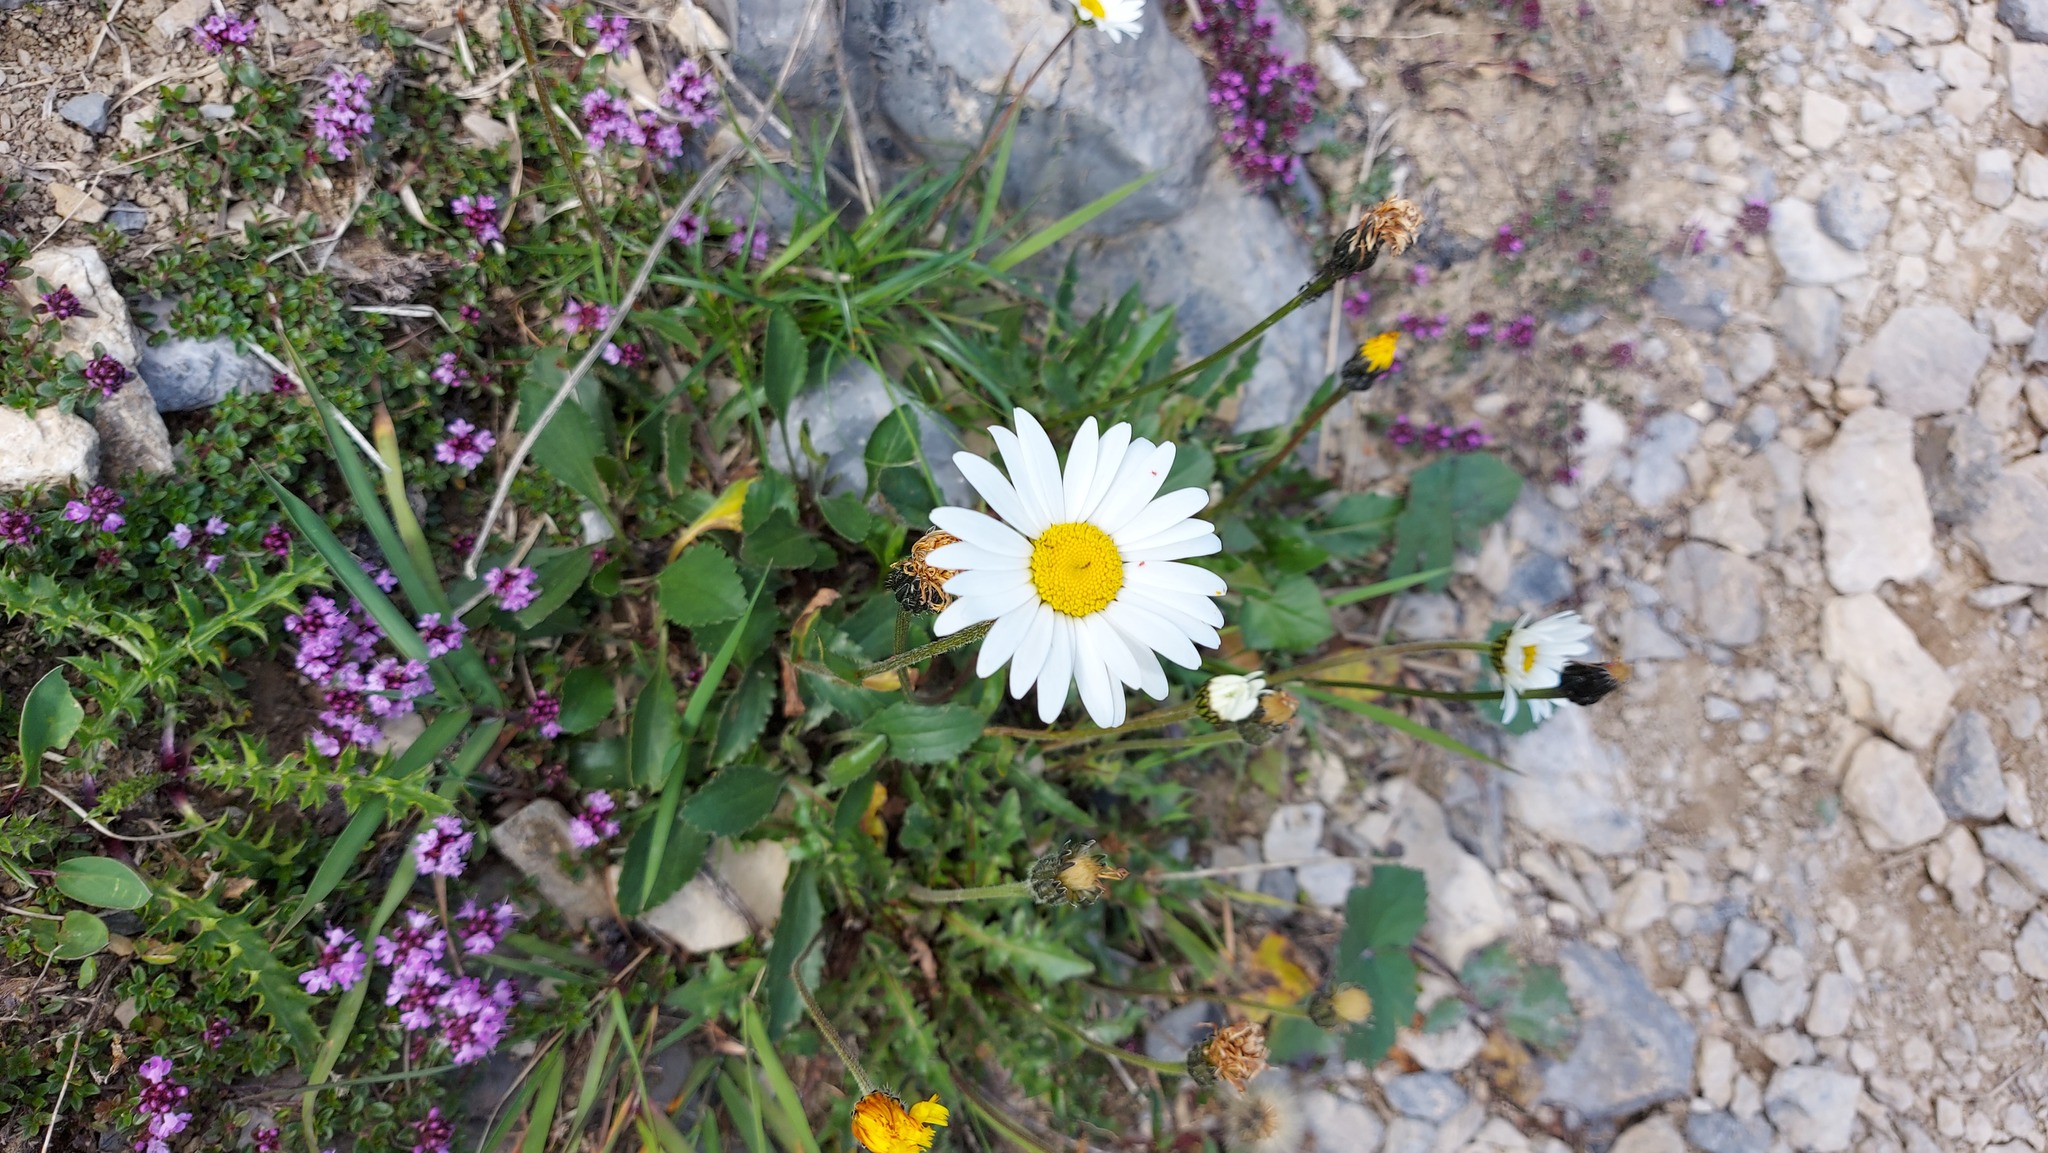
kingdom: Plantae
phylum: Tracheophyta
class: Magnoliopsida
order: Asterales
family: Asteraceae
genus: Leucanthemum
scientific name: Leucanthemum vulgare
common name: Oxeye daisy
